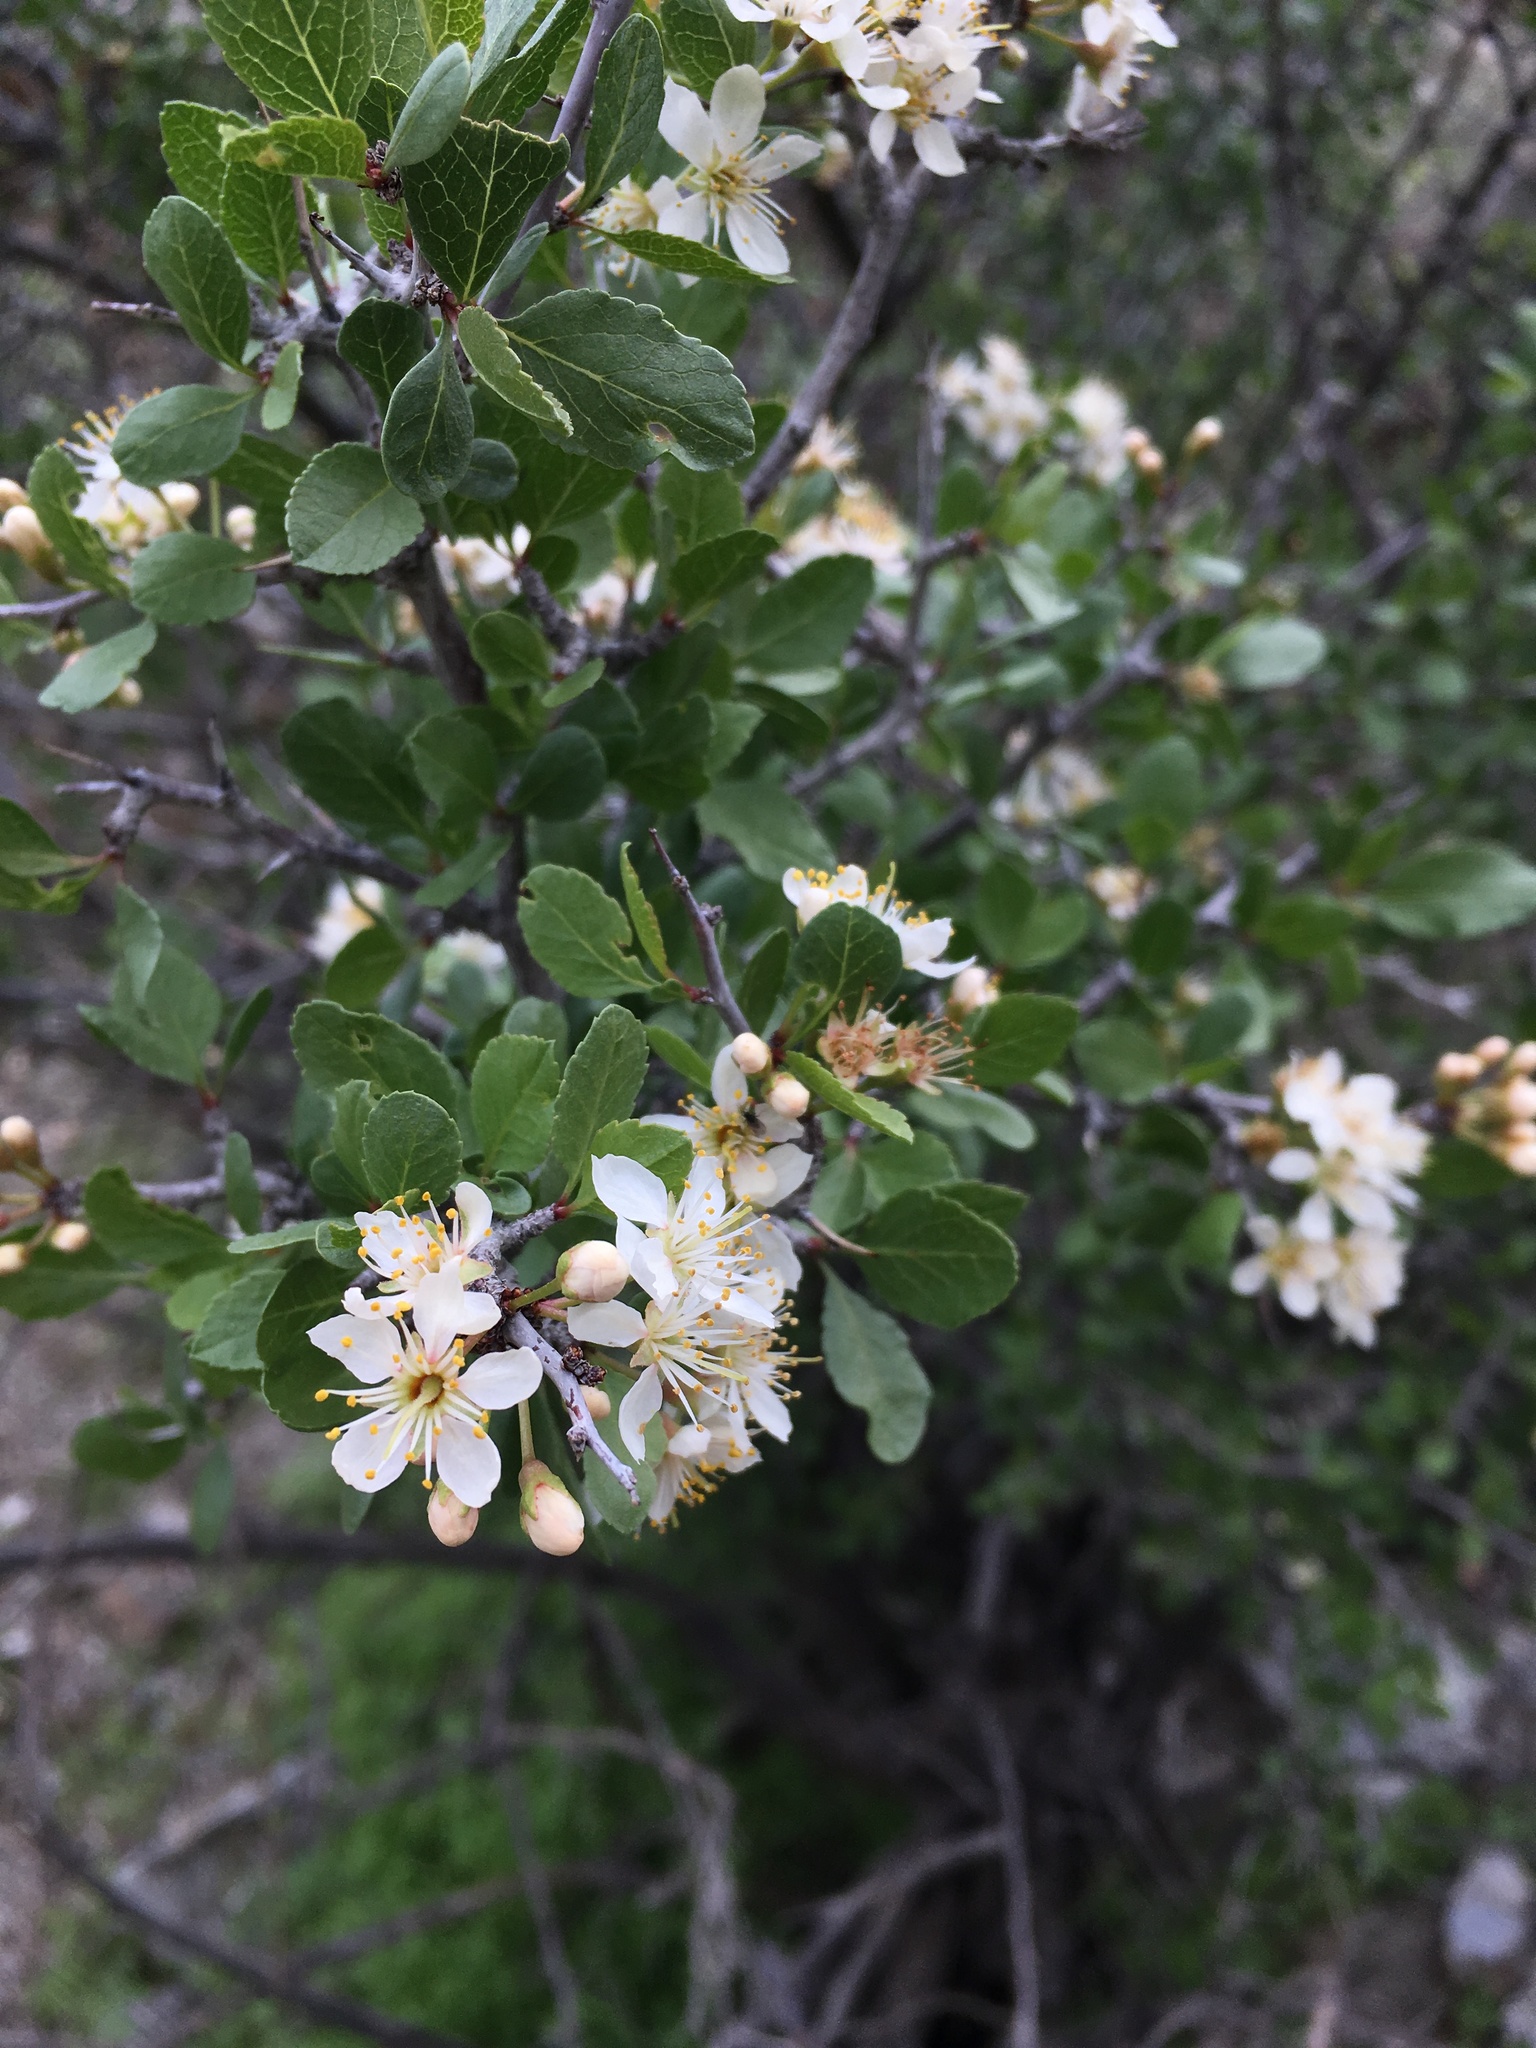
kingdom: Plantae
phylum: Tracheophyta
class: Magnoliopsida
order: Rosales
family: Rosaceae
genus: Prunus
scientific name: Prunus fremontii
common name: Desert apricot
